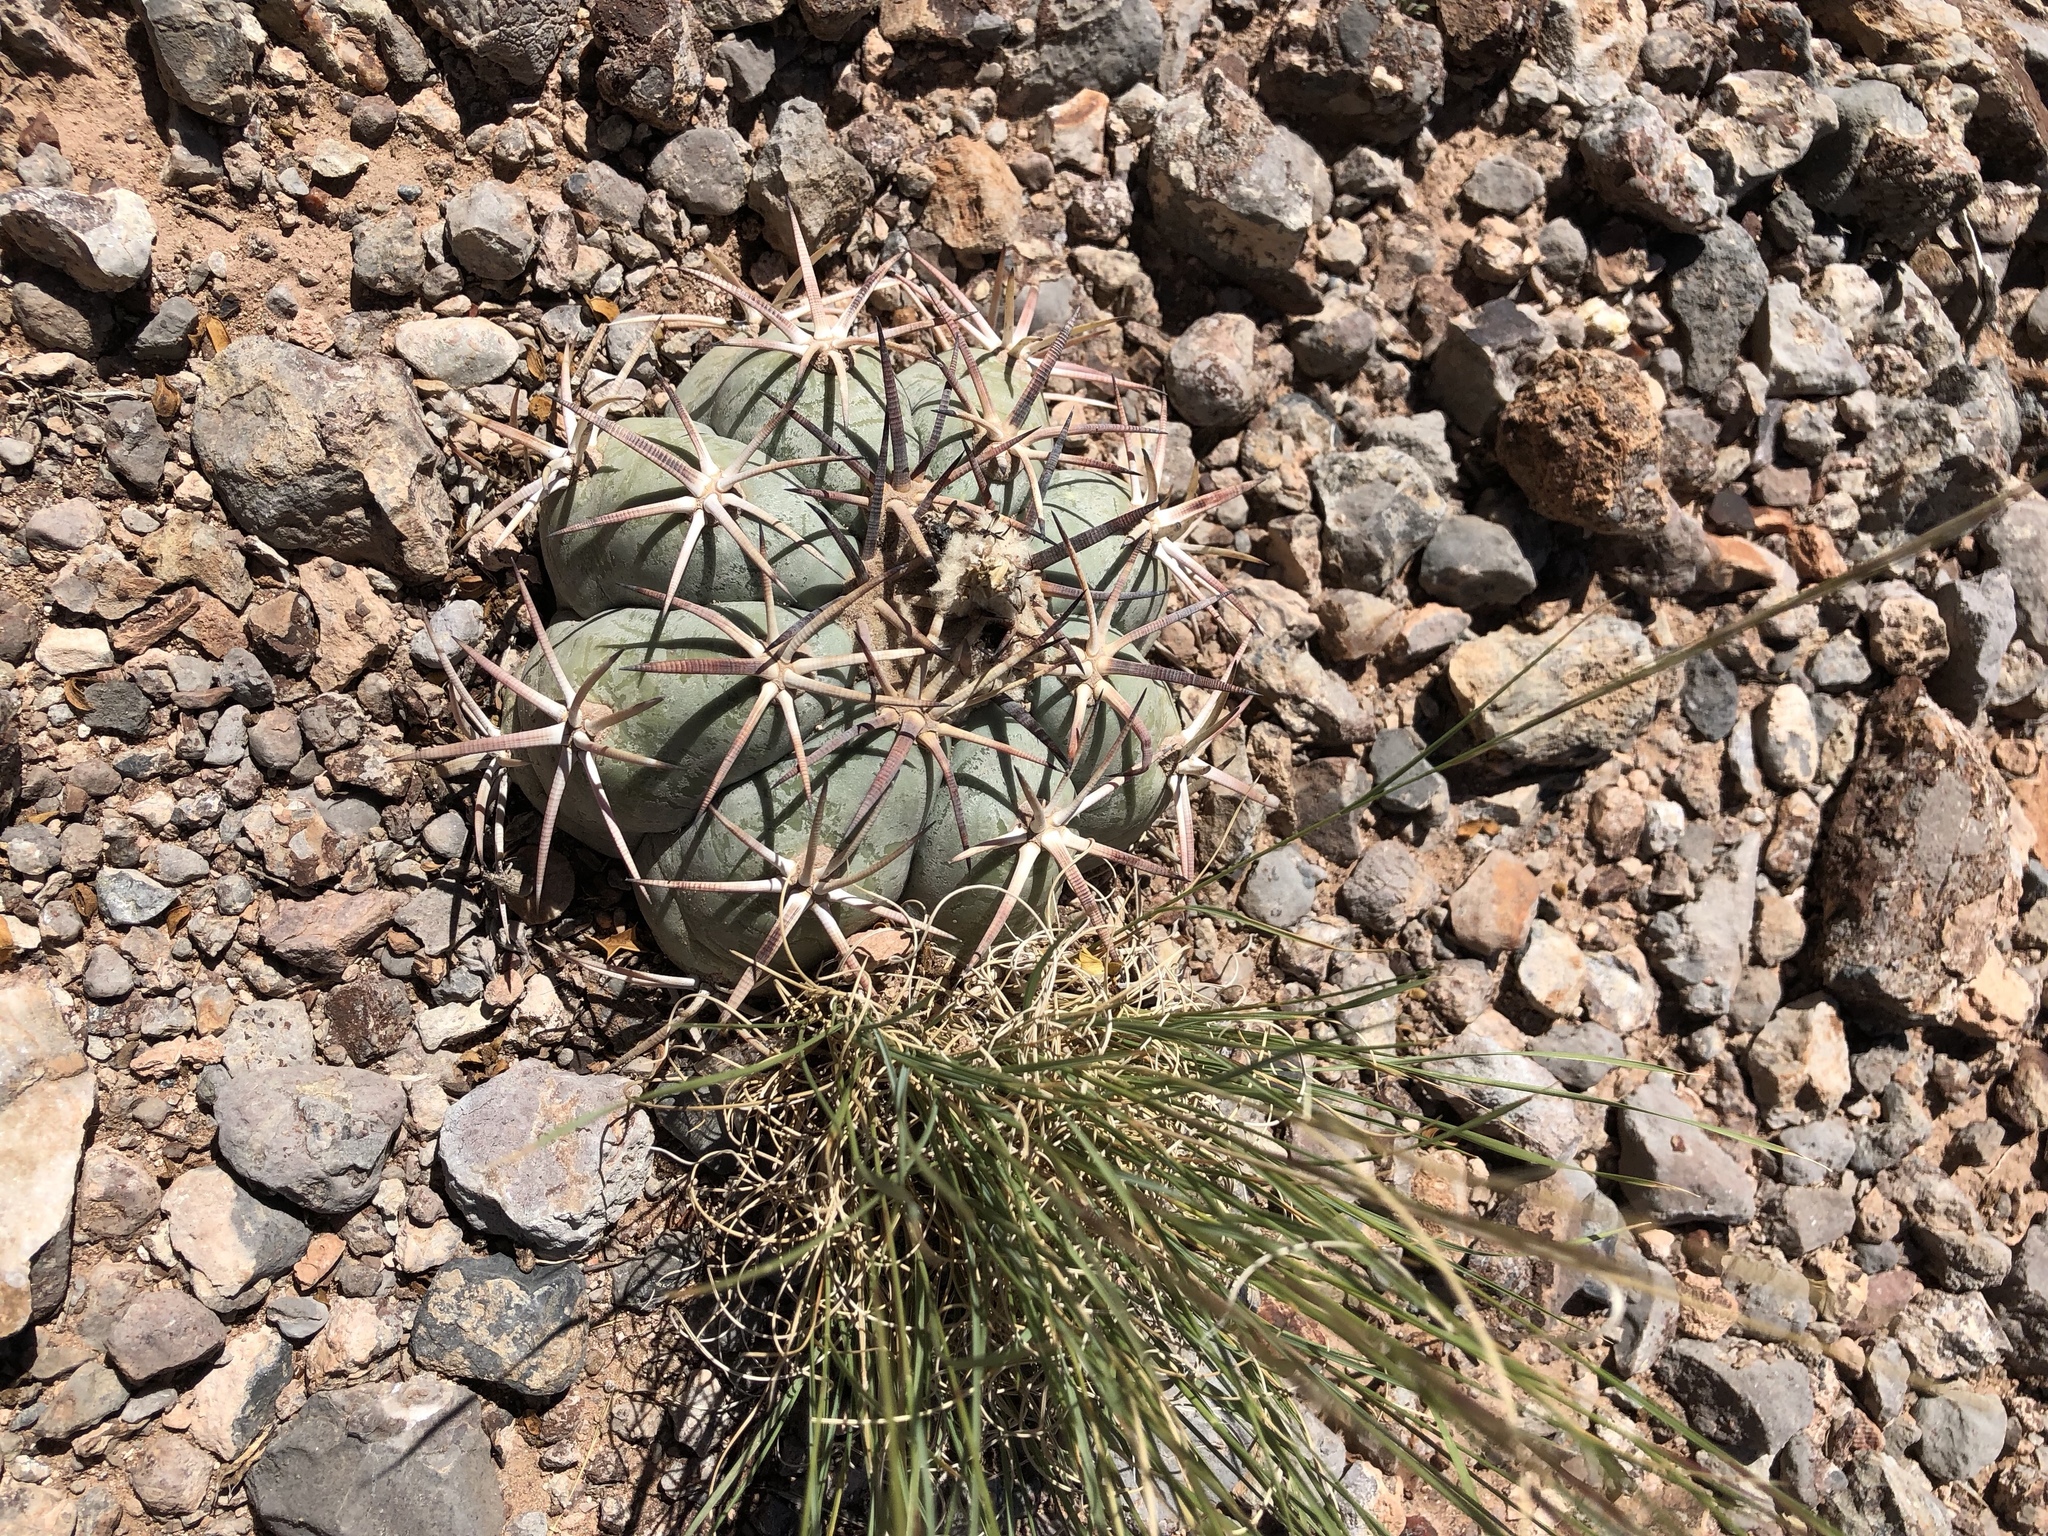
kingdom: Plantae
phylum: Tracheophyta
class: Magnoliopsida
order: Caryophyllales
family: Cactaceae
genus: Echinocactus
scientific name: Echinocactus horizonthalonius
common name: Devilshead
